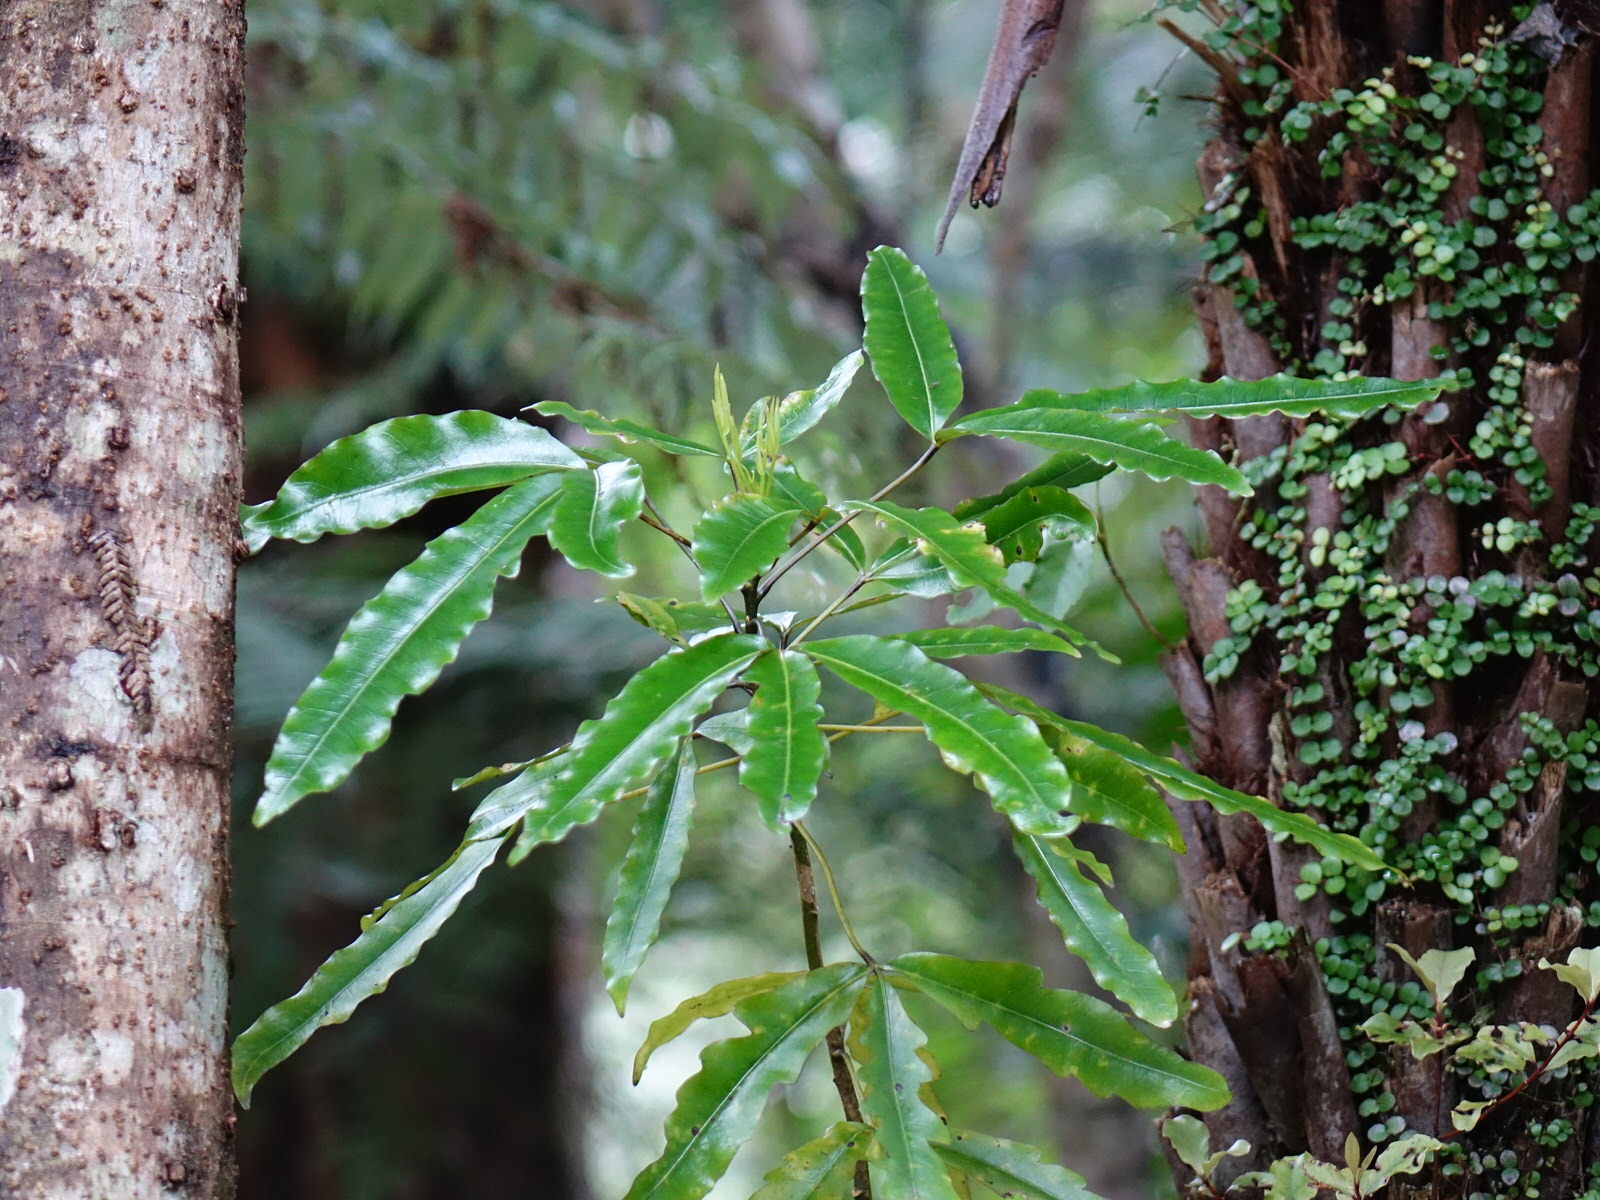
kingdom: Plantae
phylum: Tracheophyta
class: Magnoliopsida
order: Apiales
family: Araliaceae
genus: Raukaua
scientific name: Raukaua edgerleyi
